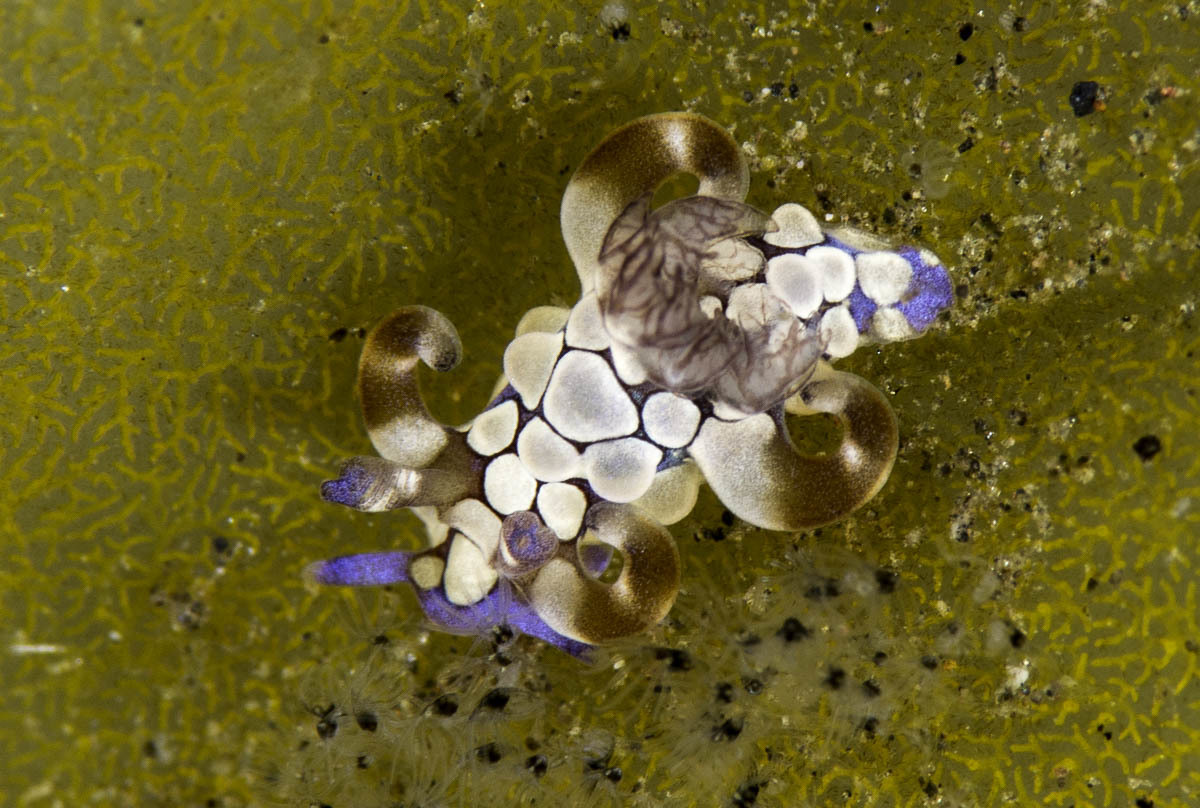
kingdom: Animalia
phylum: Mollusca
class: Gastropoda
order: Nudibranchia
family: Goniodorididae
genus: Trapania
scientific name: Trapania scurra
